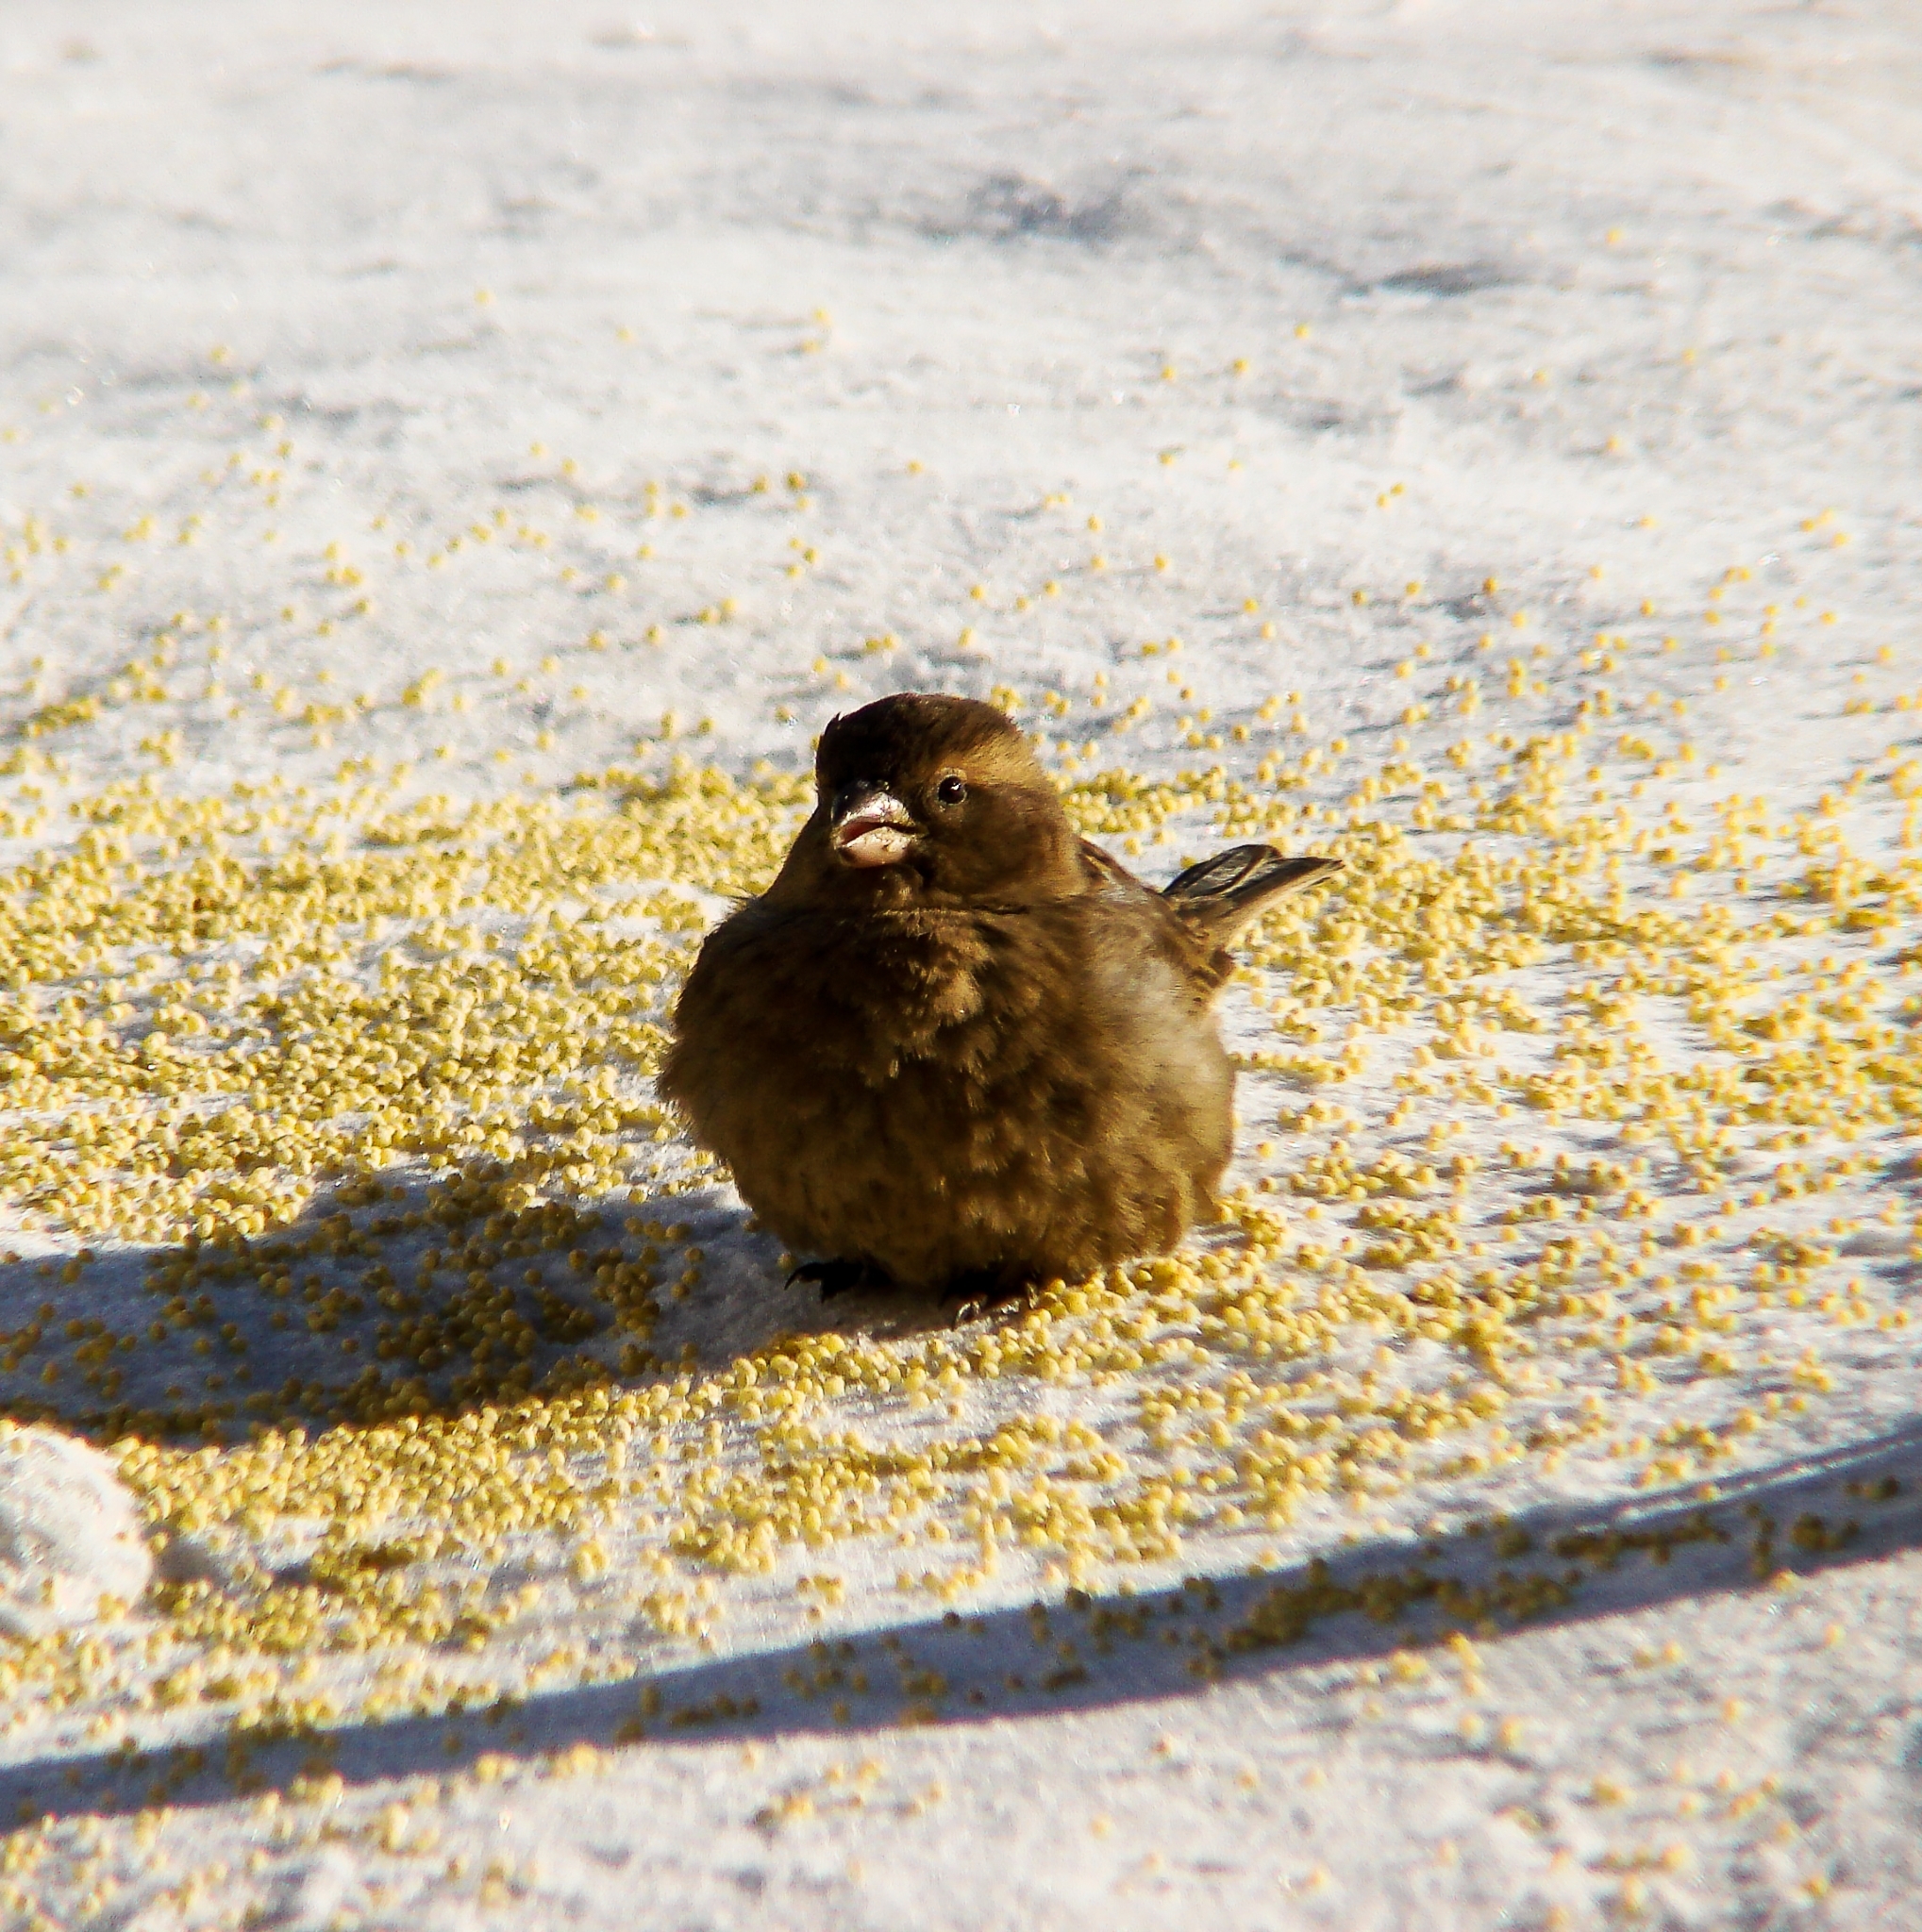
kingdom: Animalia
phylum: Chordata
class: Aves
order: Passeriformes
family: Passeridae
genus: Passer
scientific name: Passer domesticus
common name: House sparrow
